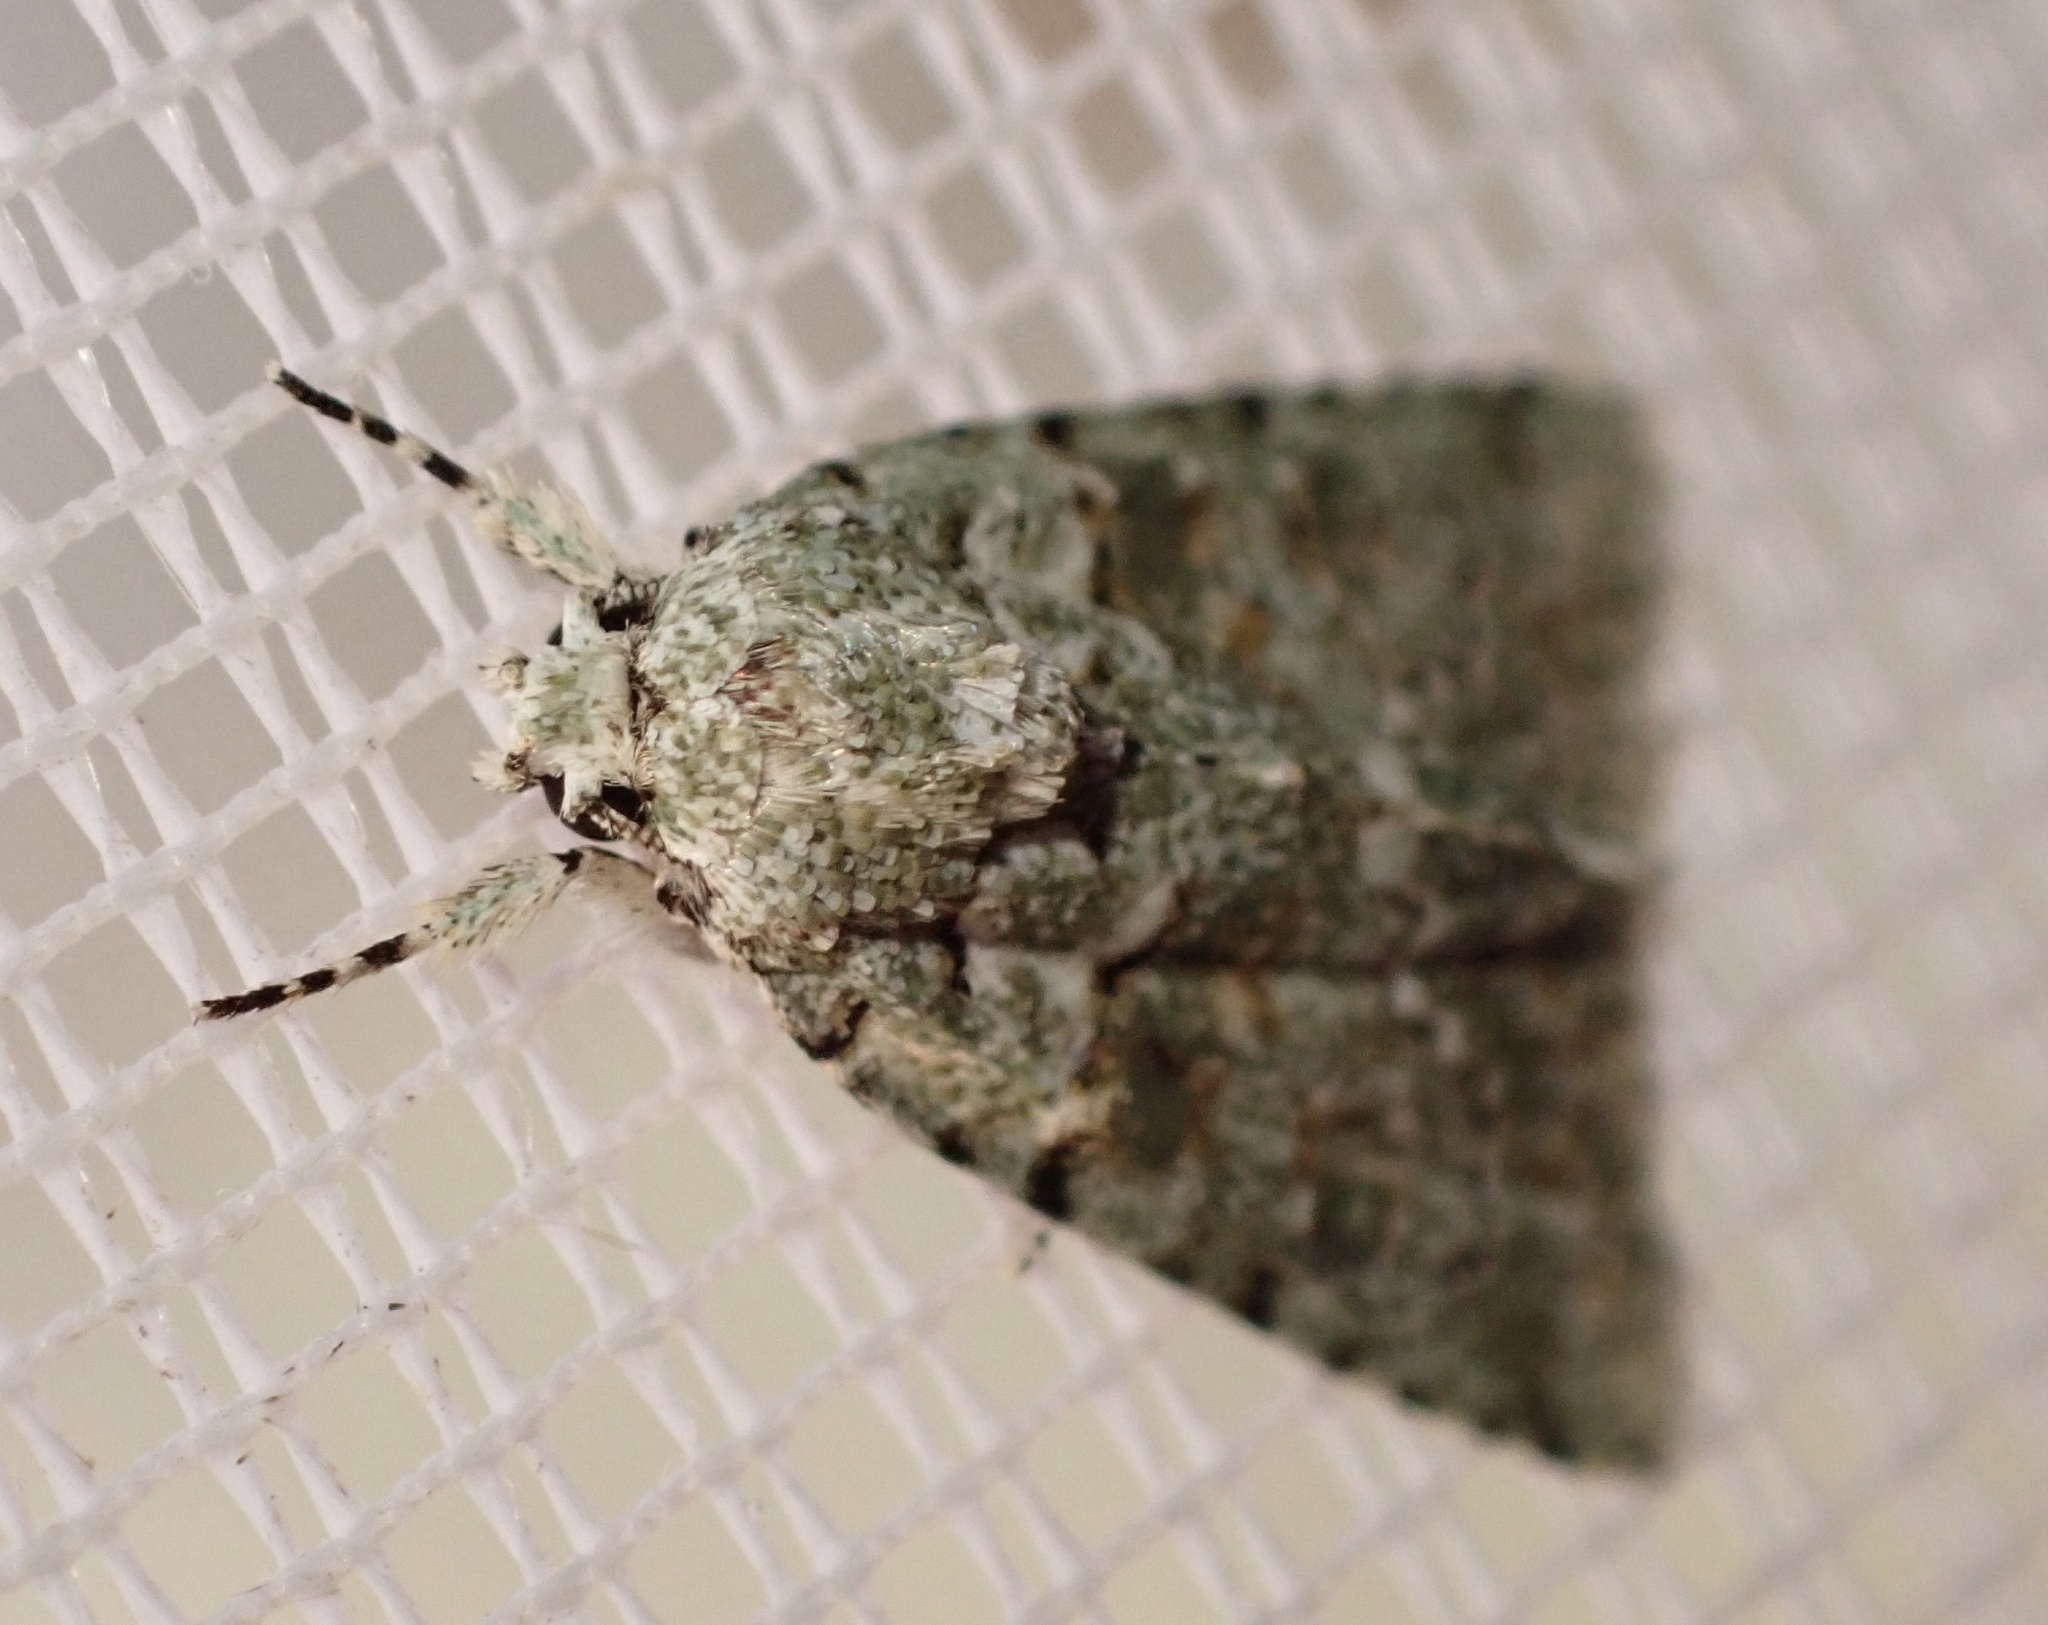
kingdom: Animalia
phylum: Arthropoda
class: Insecta
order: Lepidoptera
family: Noctuidae
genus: Nyctobrya
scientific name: Nyctobrya muralis
